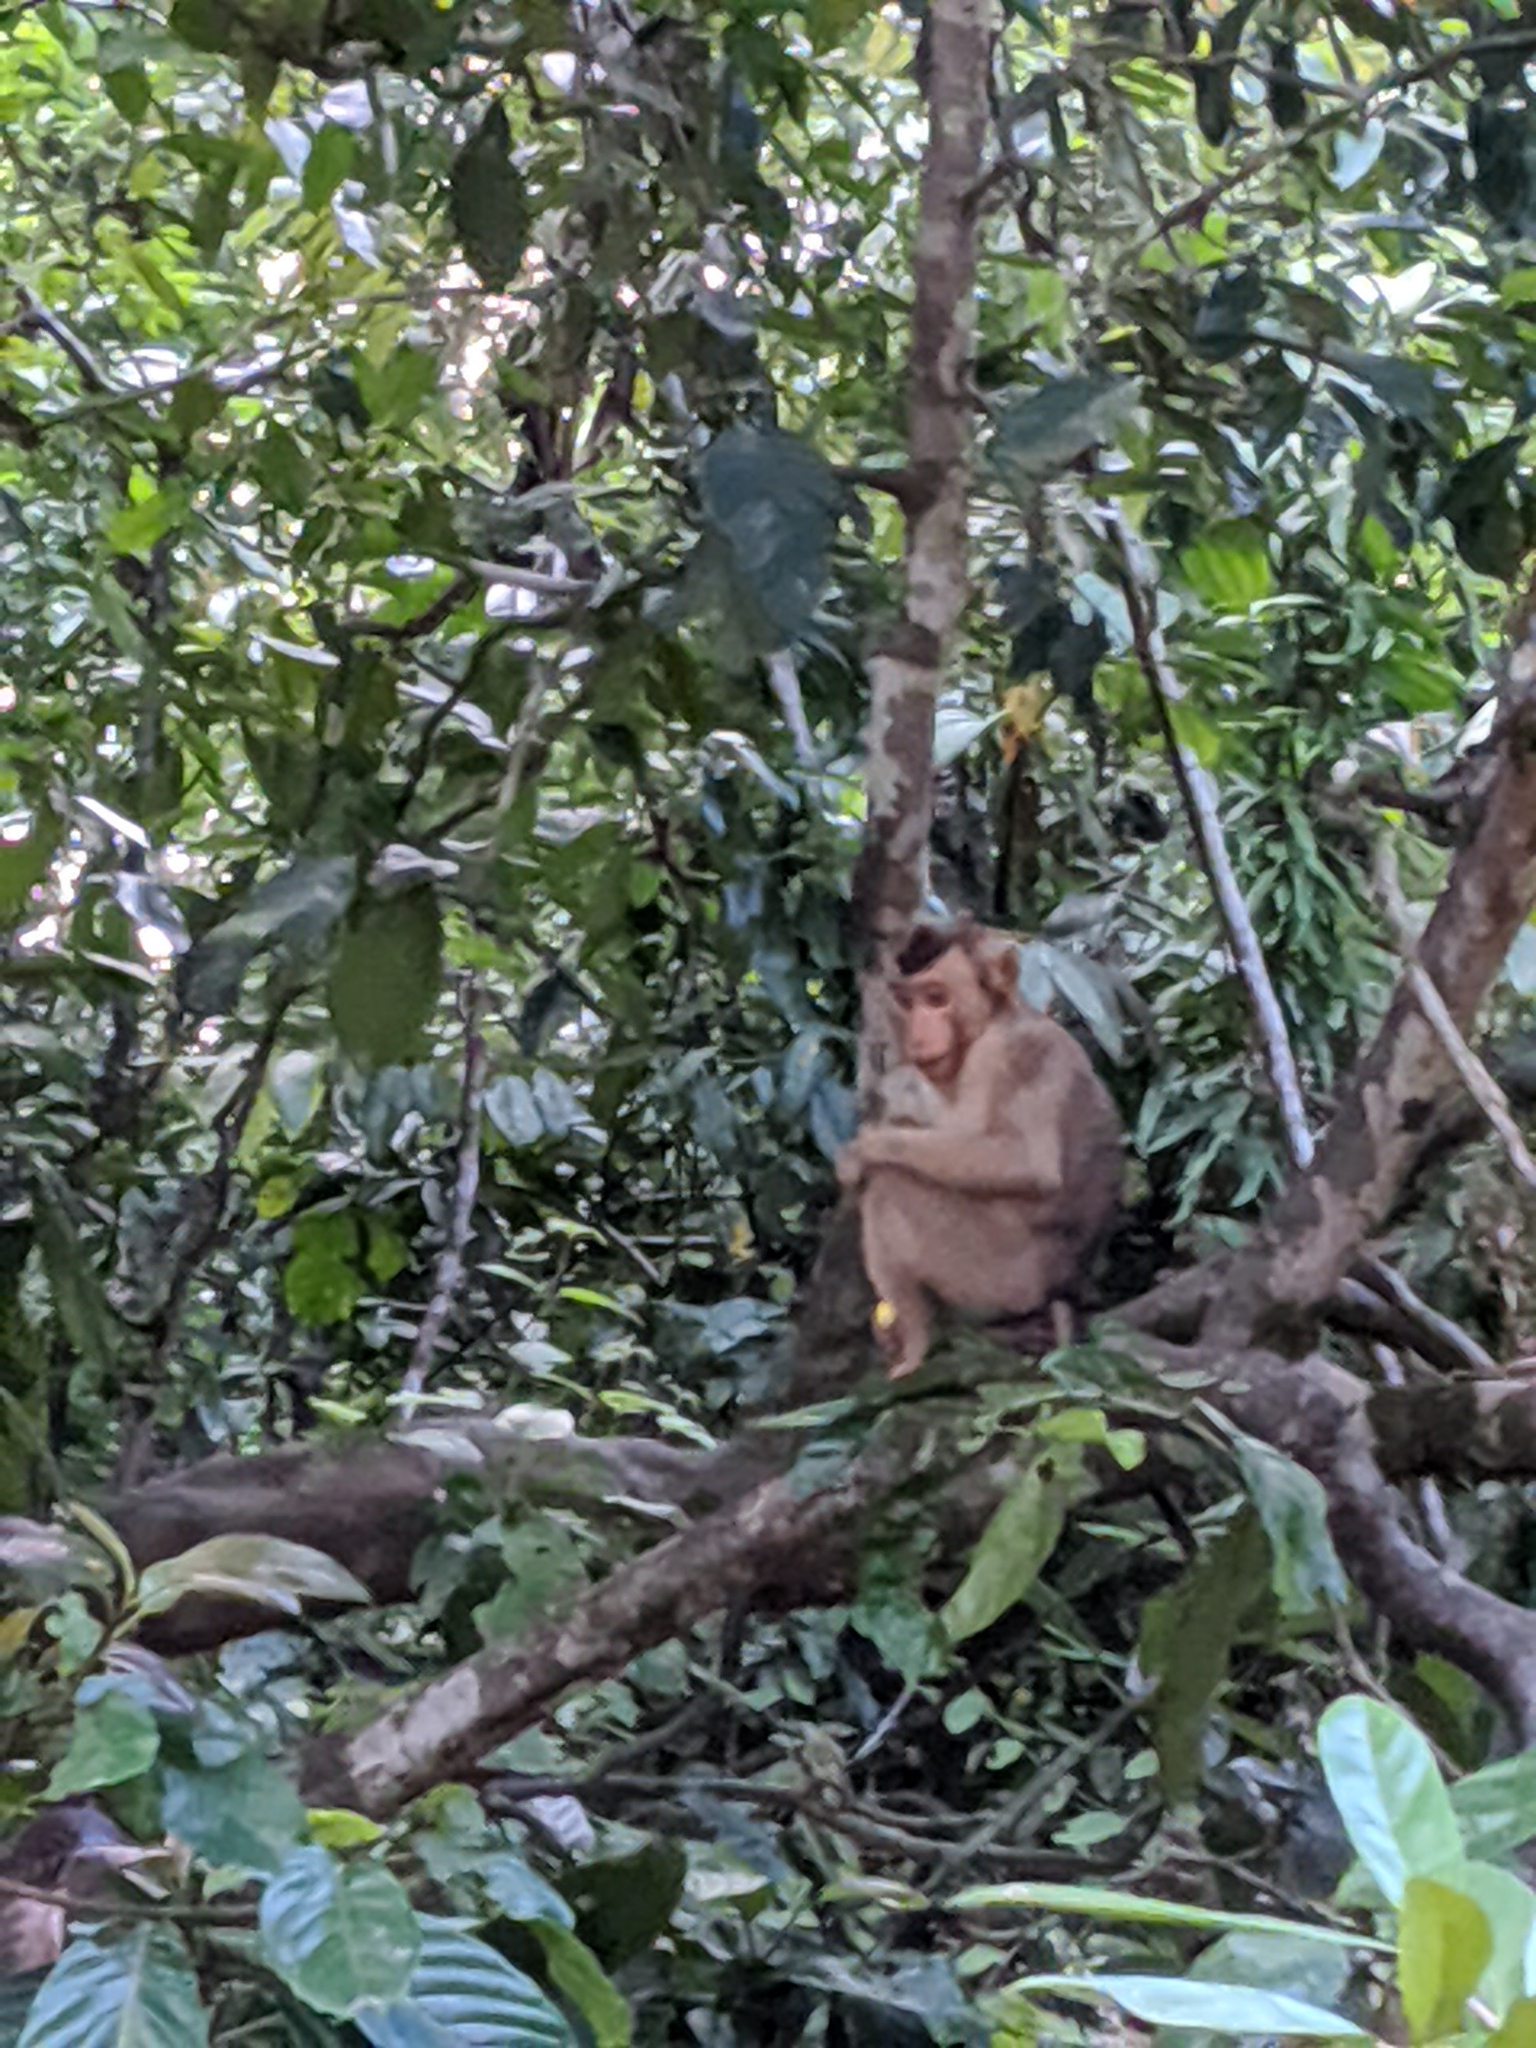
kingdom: Animalia
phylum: Chordata
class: Mammalia
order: Primates
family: Cercopithecidae
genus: Macaca
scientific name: Macaca nemestrina
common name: Southern pig-tailed macaque
